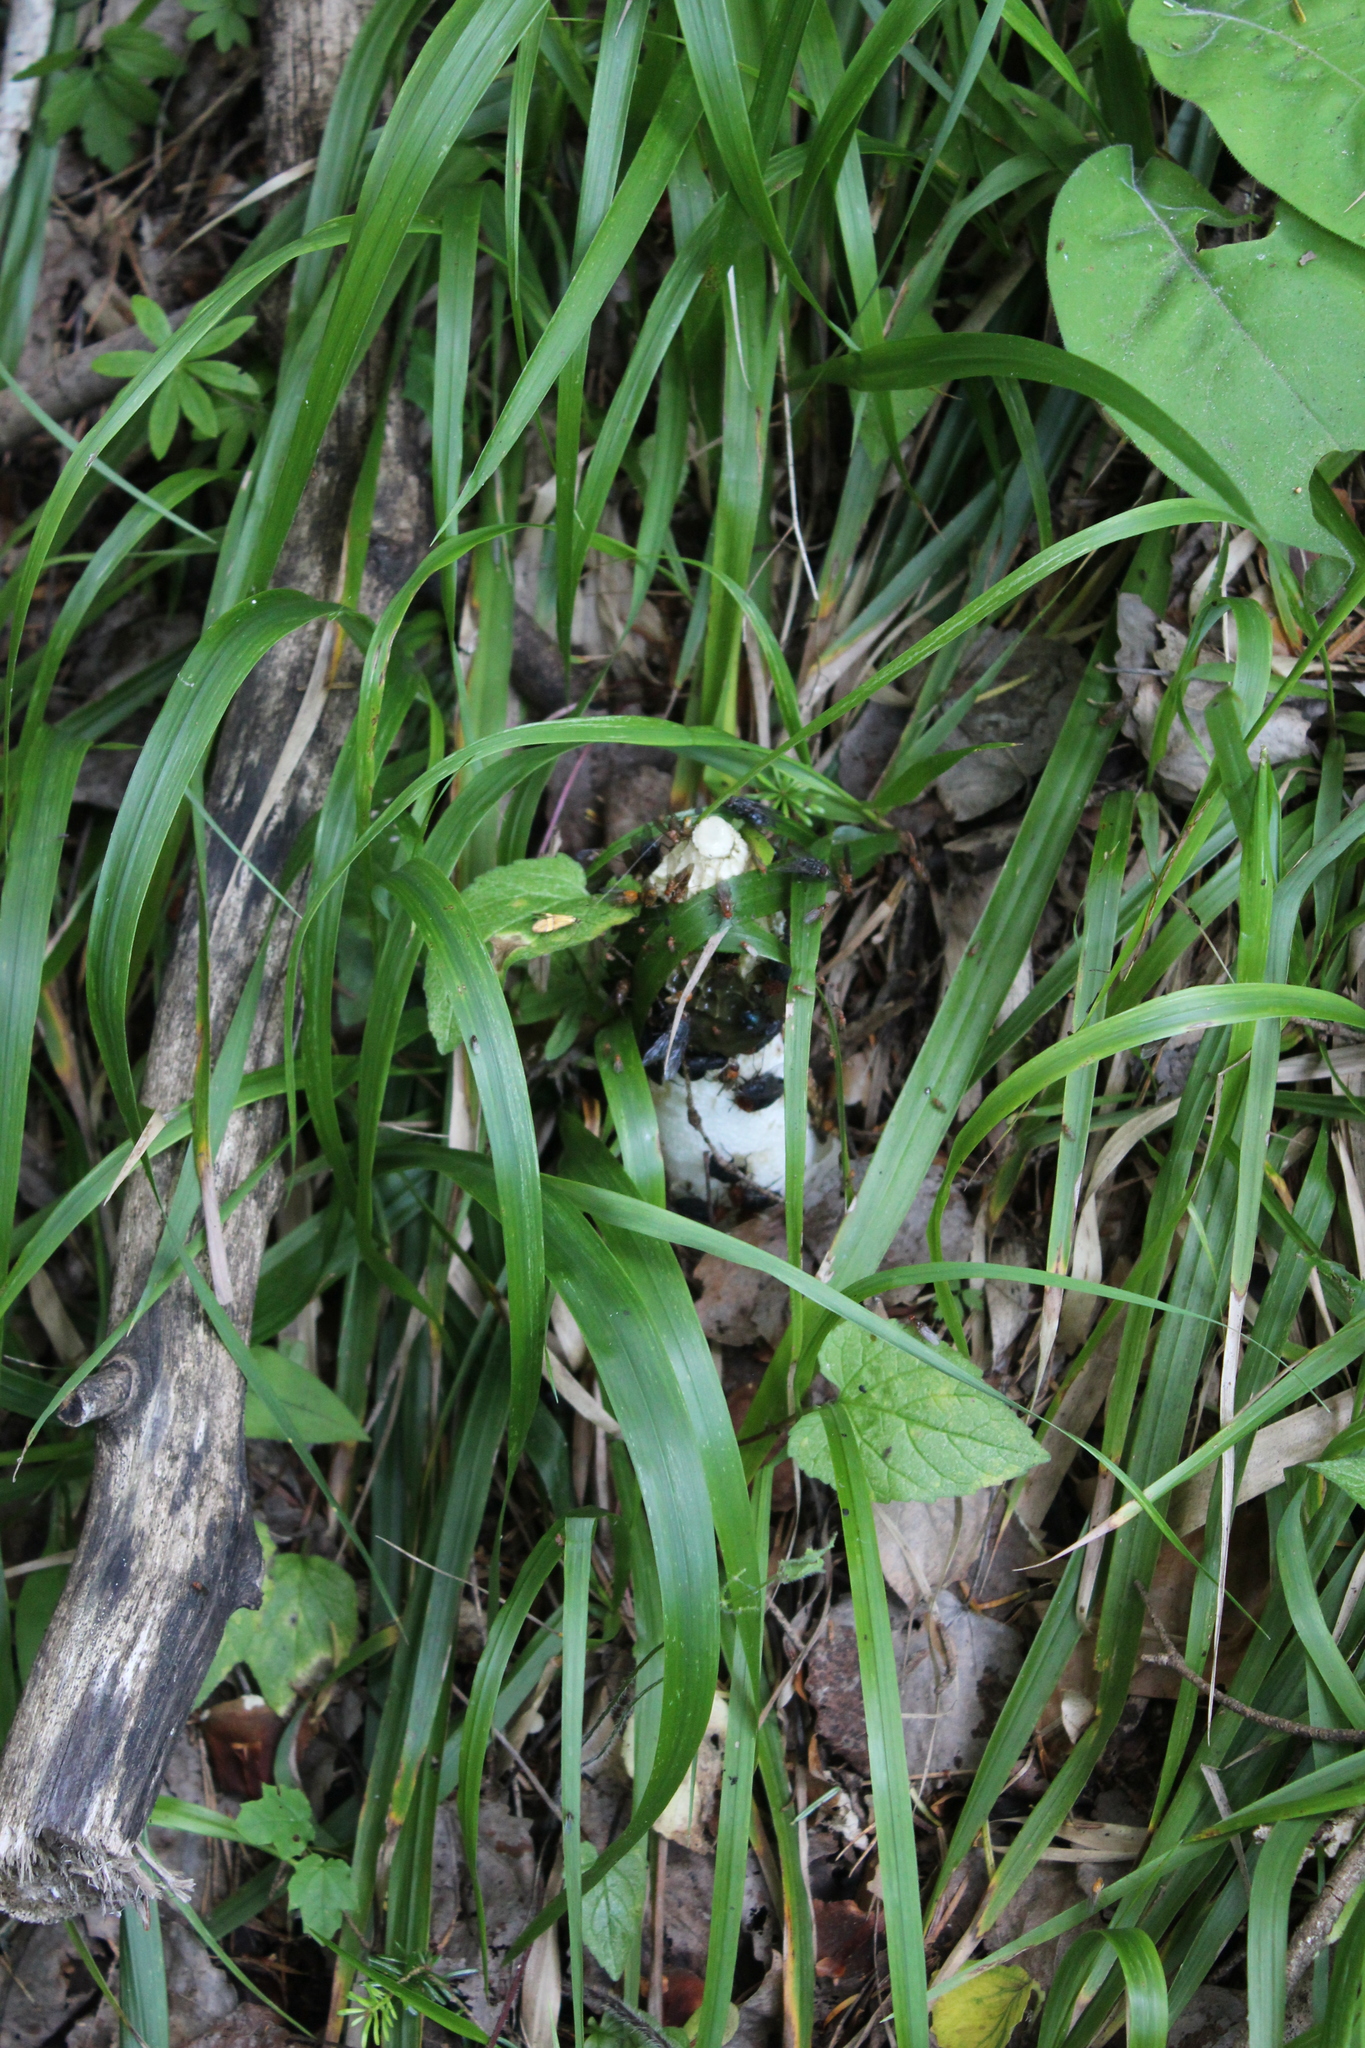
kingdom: Fungi
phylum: Basidiomycota
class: Agaricomycetes
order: Phallales
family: Phallaceae
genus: Phallus
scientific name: Phallus impudicus
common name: Common stinkhorn
